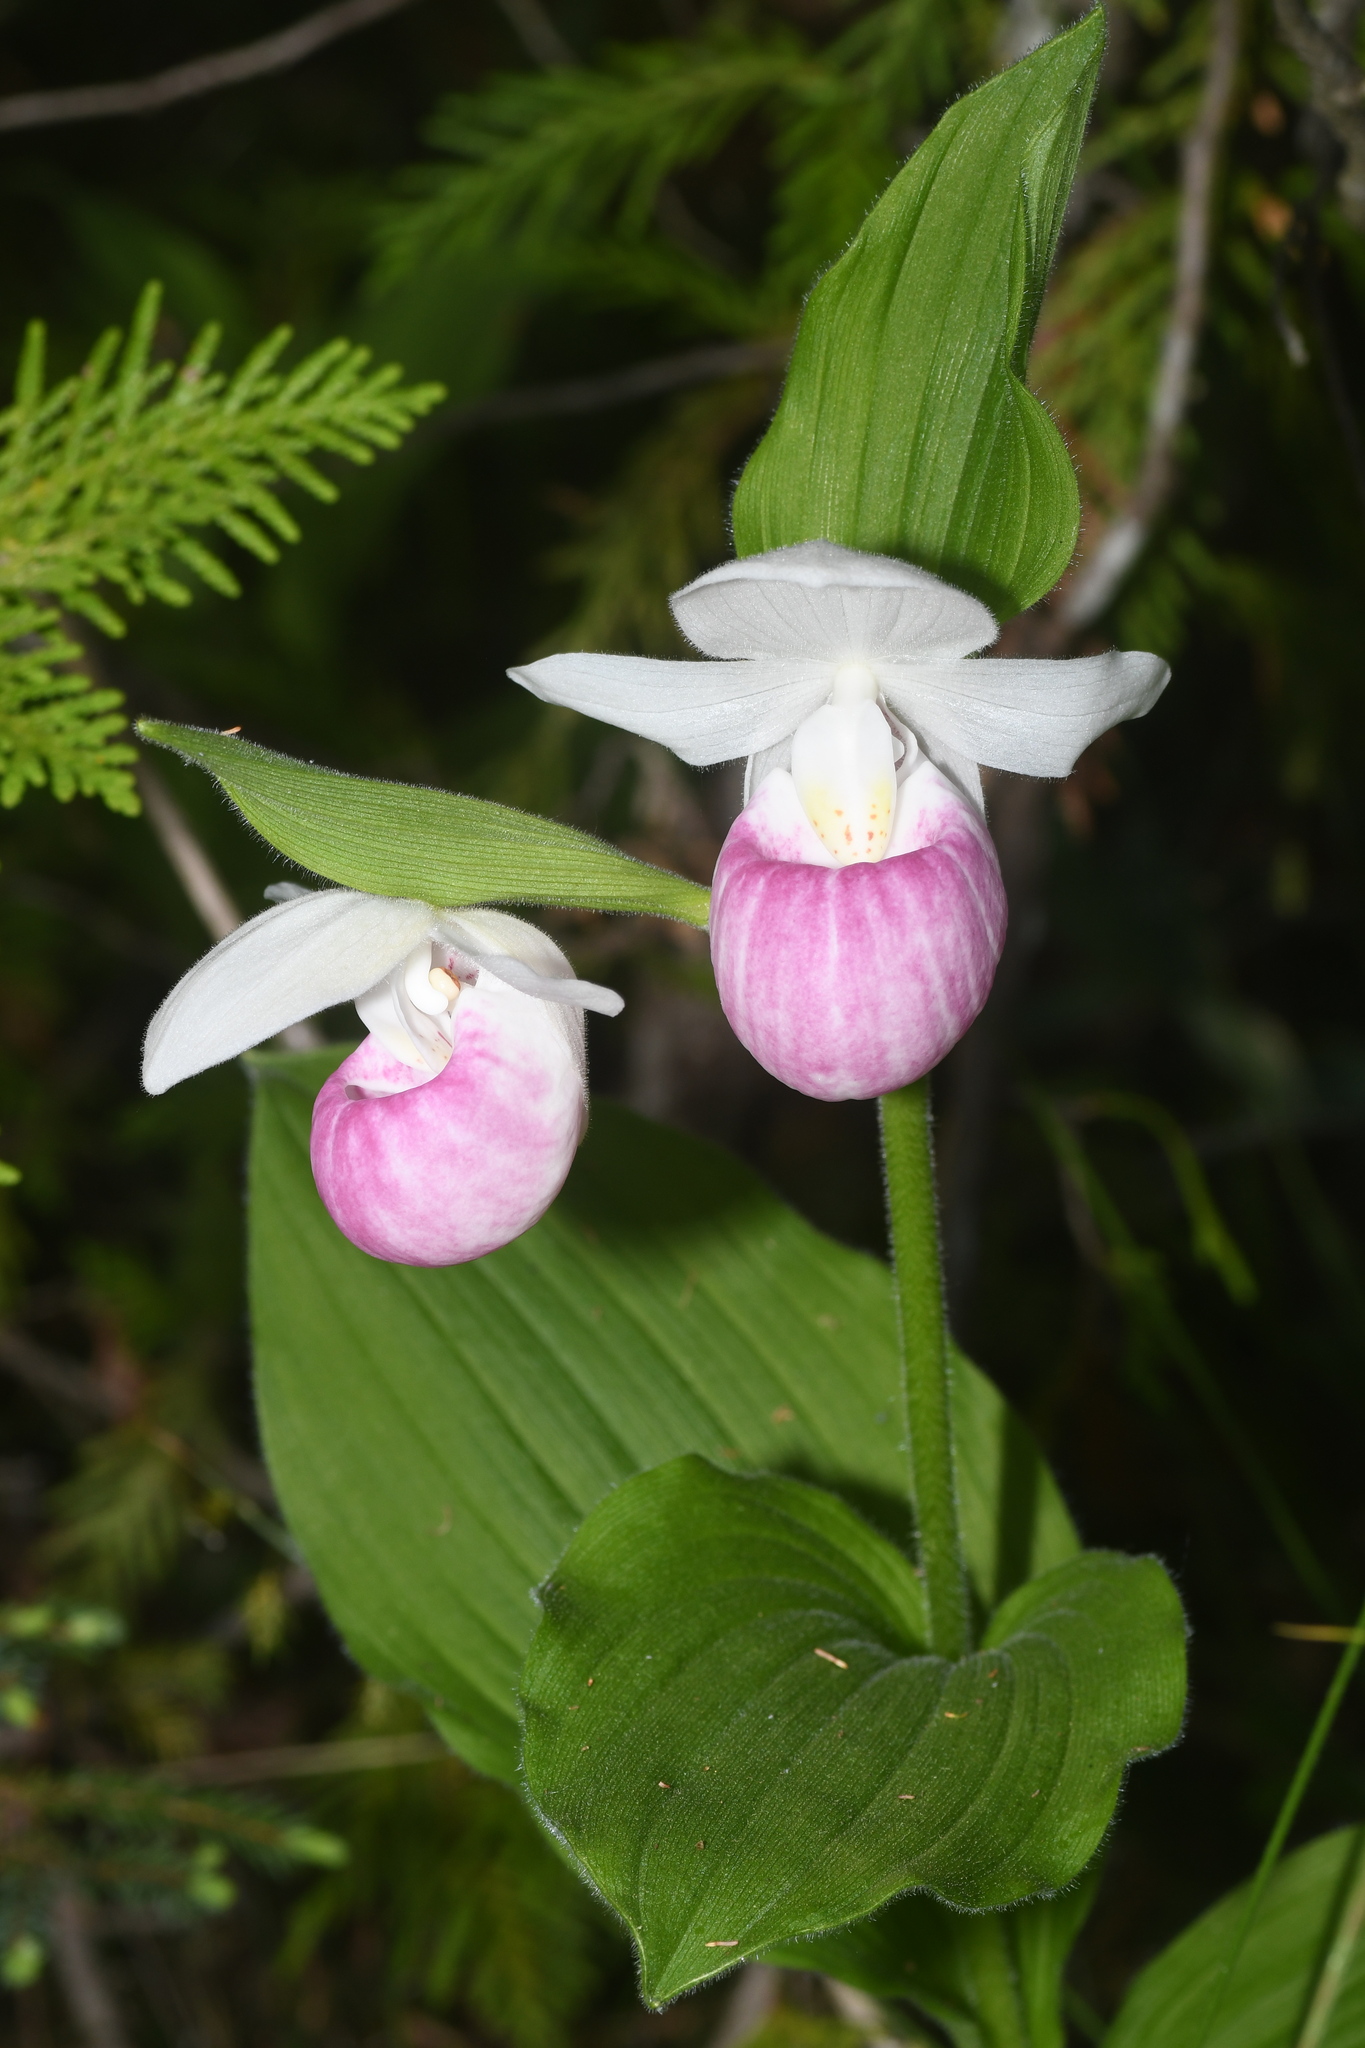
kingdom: Plantae
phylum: Tracheophyta
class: Liliopsida
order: Asparagales
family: Orchidaceae
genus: Cypripedium
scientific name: Cypripedium reginae
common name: Queen lady's-slipper
